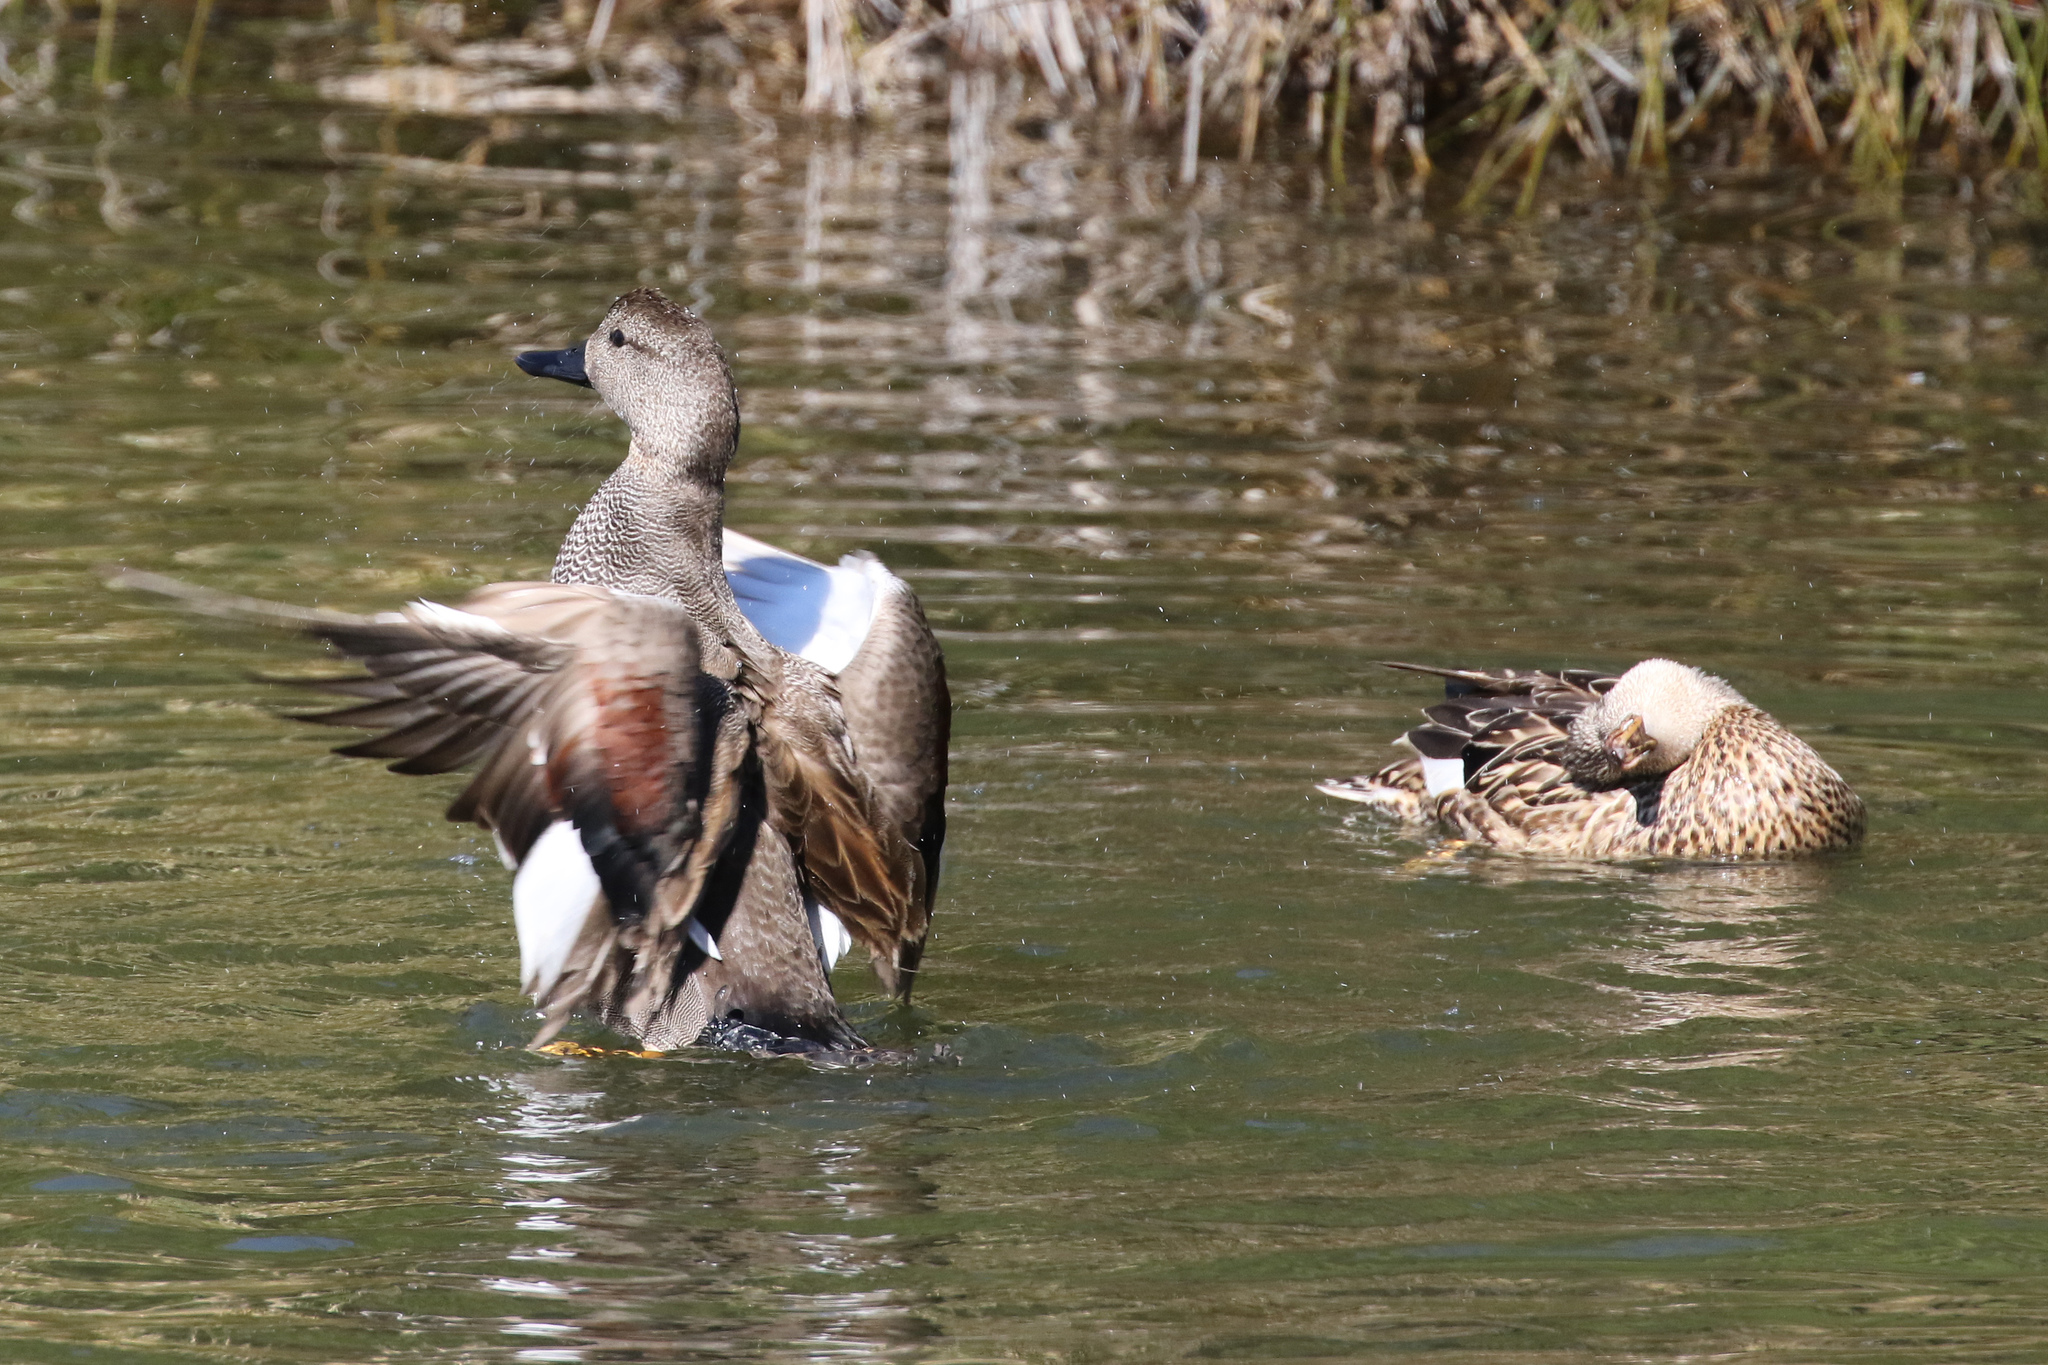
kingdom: Animalia
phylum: Chordata
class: Aves
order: Anseriformes
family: Anatidae
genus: Mareca
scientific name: Mareca strepera
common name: Gadwall
